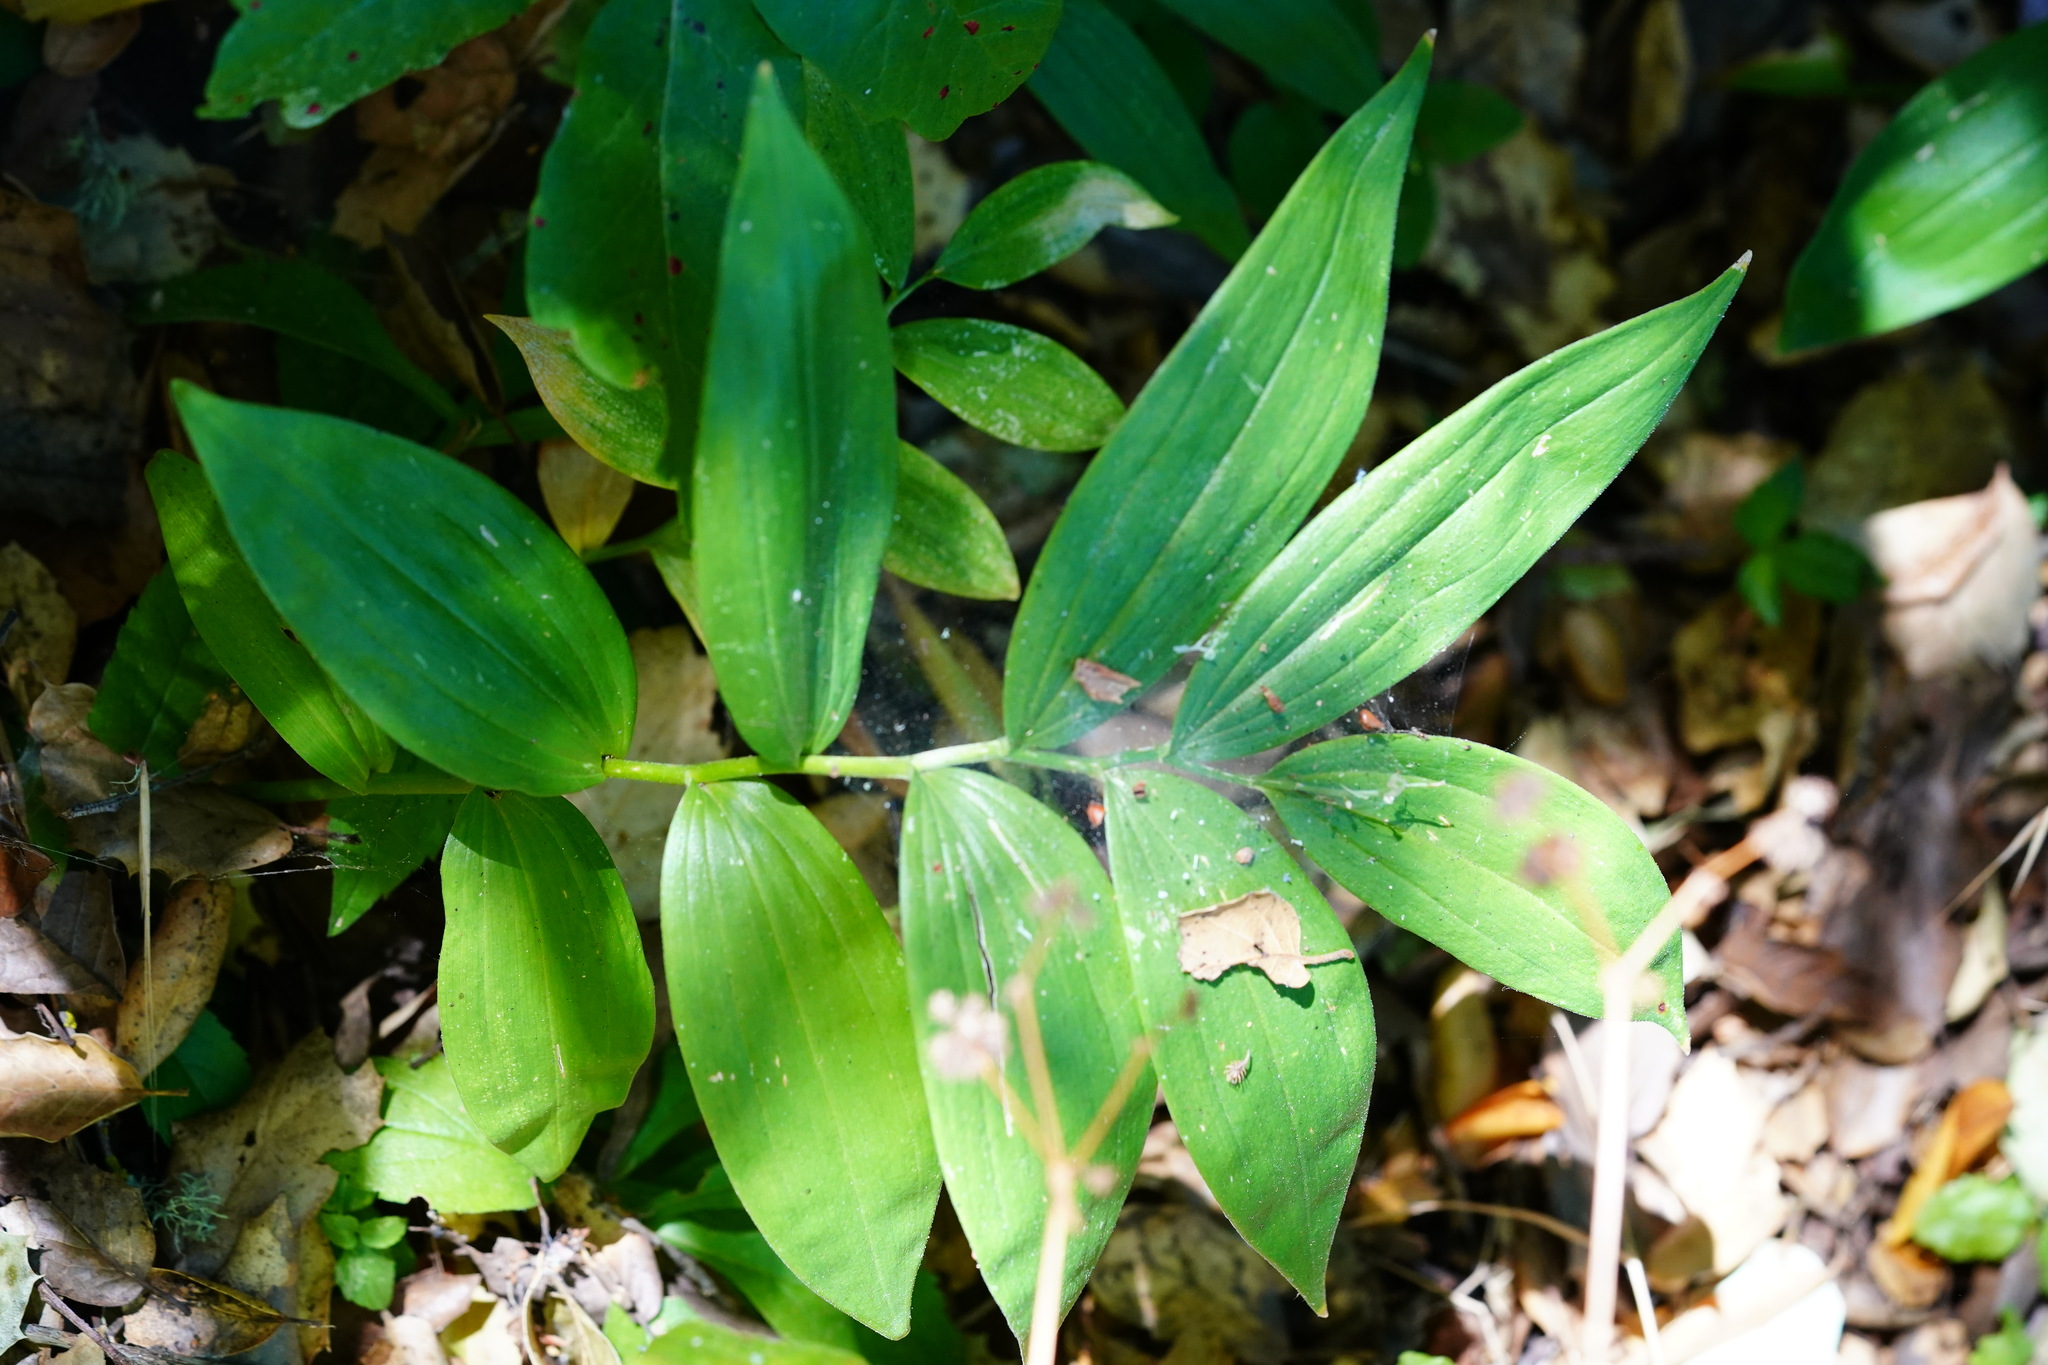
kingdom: Plantae
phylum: Tracheophyta
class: Liliopsida
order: Asparagales
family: Asparagaceae
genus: Maianthemum
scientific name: Maianthemum stellatum
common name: Little false solomon's seal
